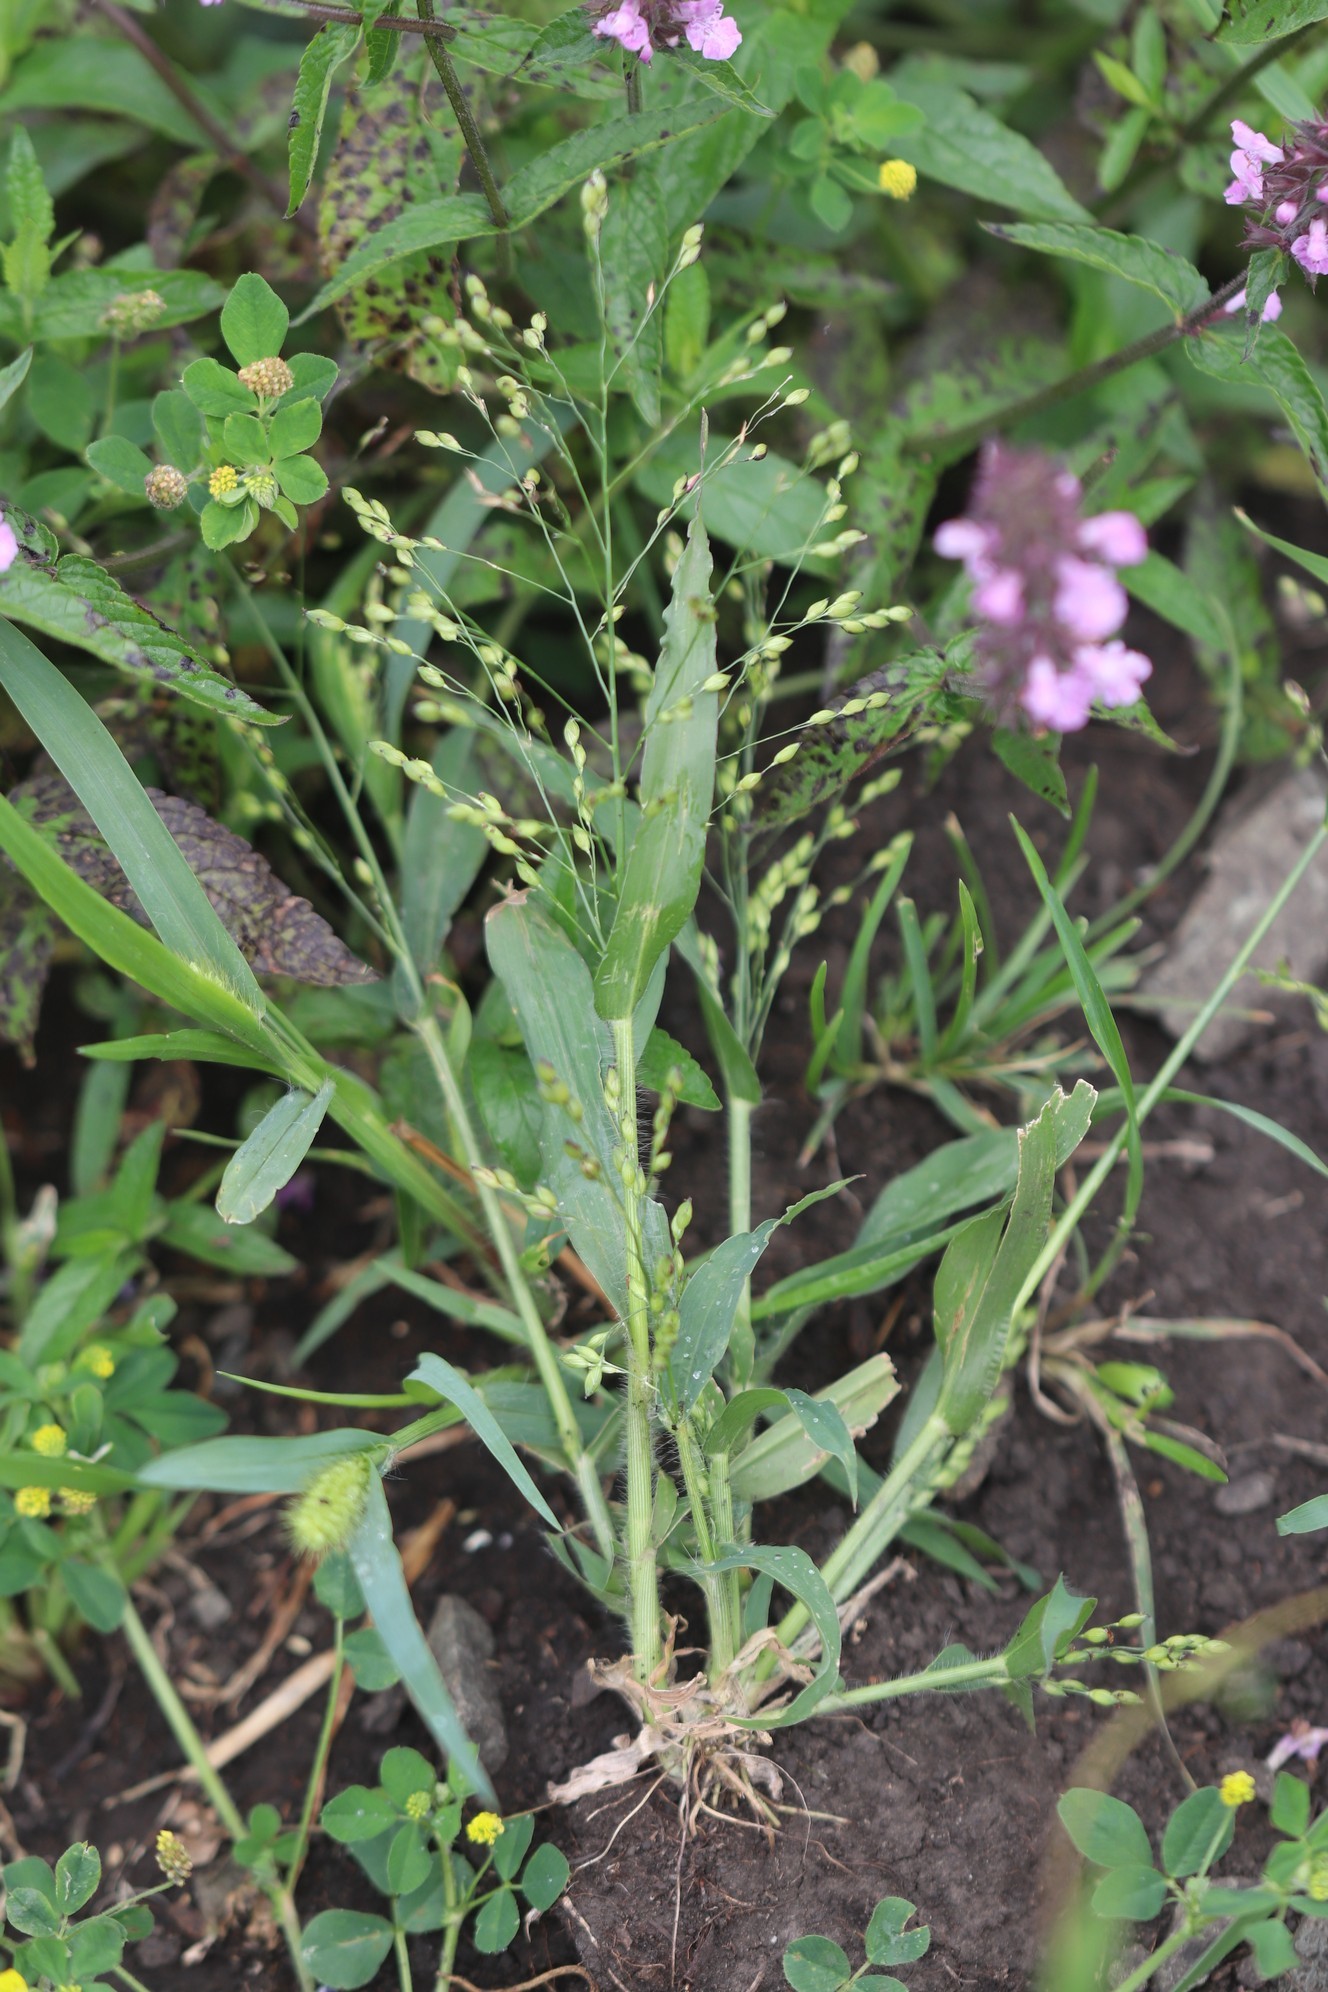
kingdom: Plantae
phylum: Tracheophyta
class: Liliopsida
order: Poales
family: Poaceae
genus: Panicum
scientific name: Panicum miliaceum
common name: Common millet
